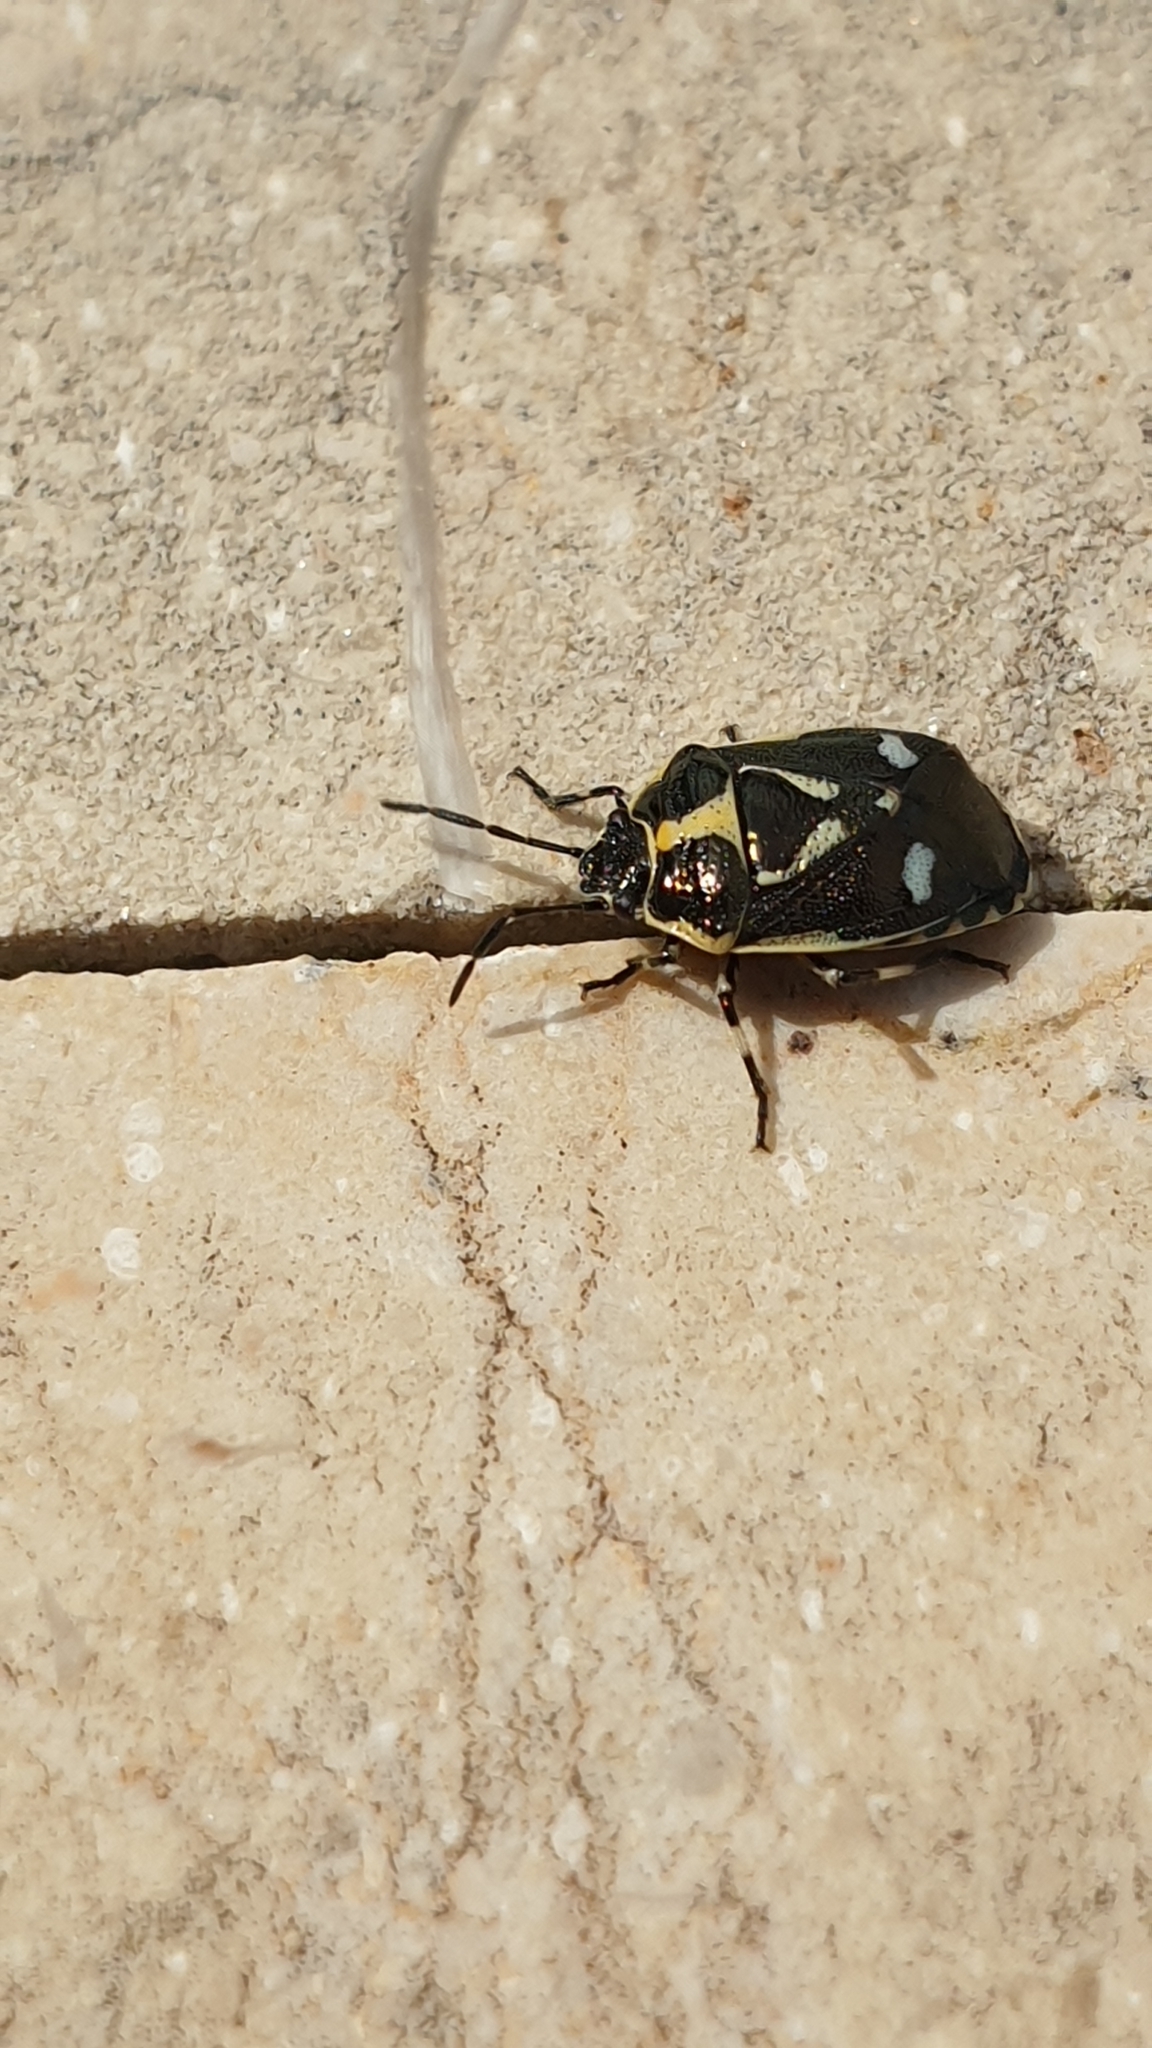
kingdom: Animalia
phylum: Arthropoda
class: Insecta
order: Hemiptera
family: Pentatomidae
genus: Eurydema
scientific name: Eurydema oleracea
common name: Cabbage bug
